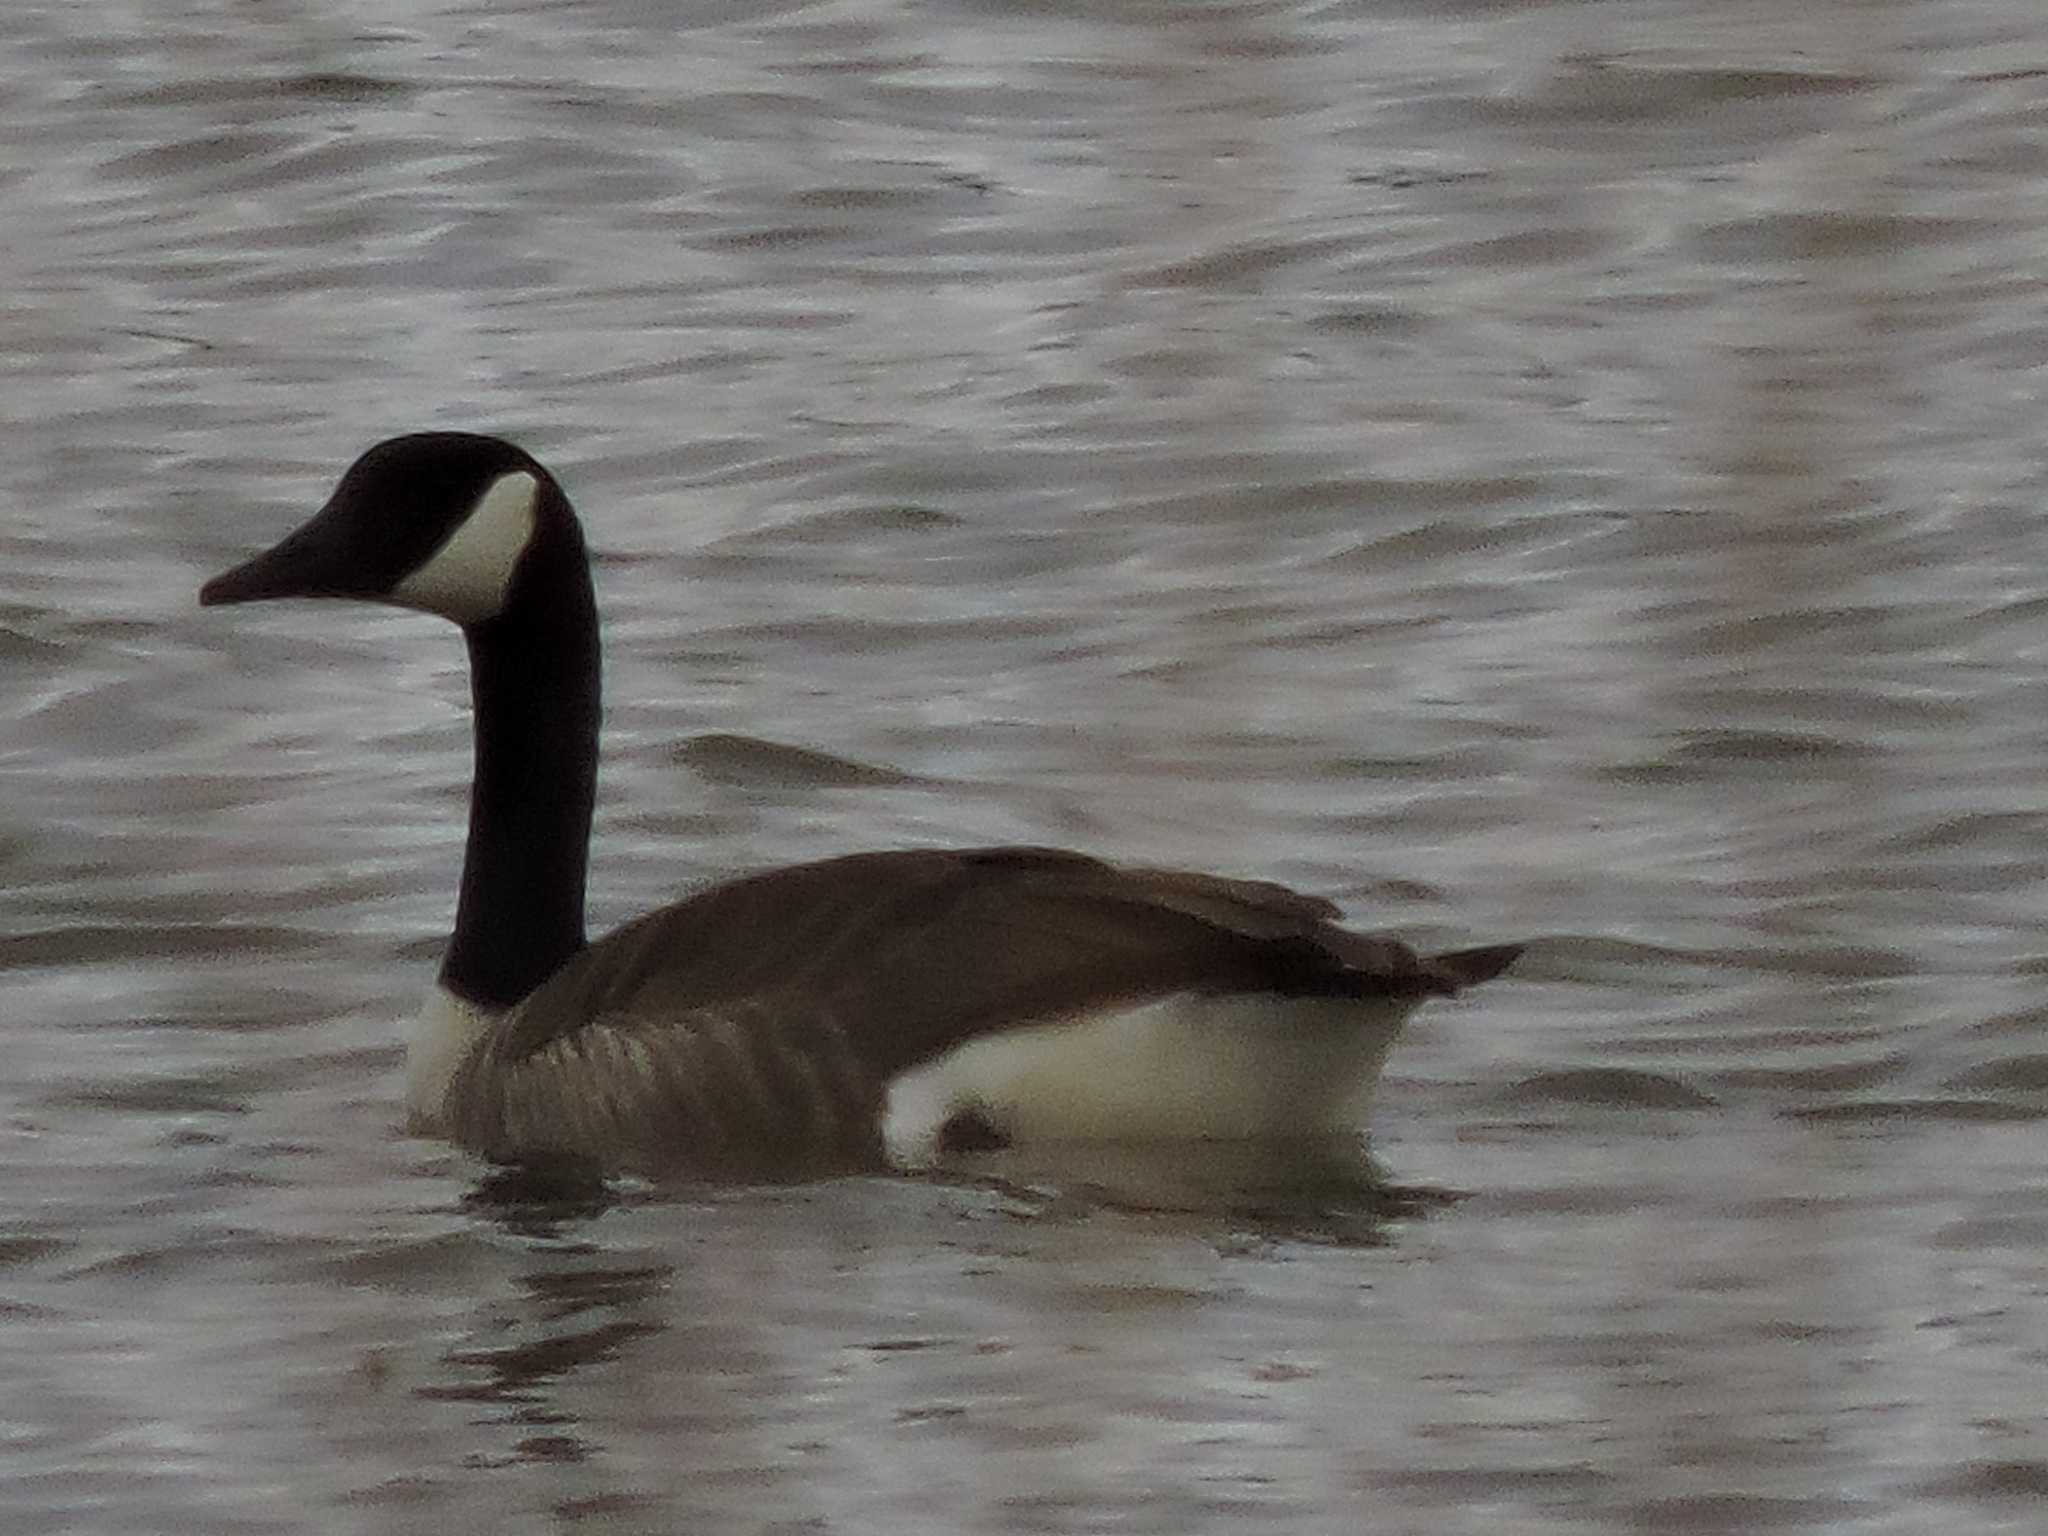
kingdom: Animalia
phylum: Chordata
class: Aves
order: Anseriformes
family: Anatidae
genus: Branta
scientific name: Branta canadensis
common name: Canada goose
